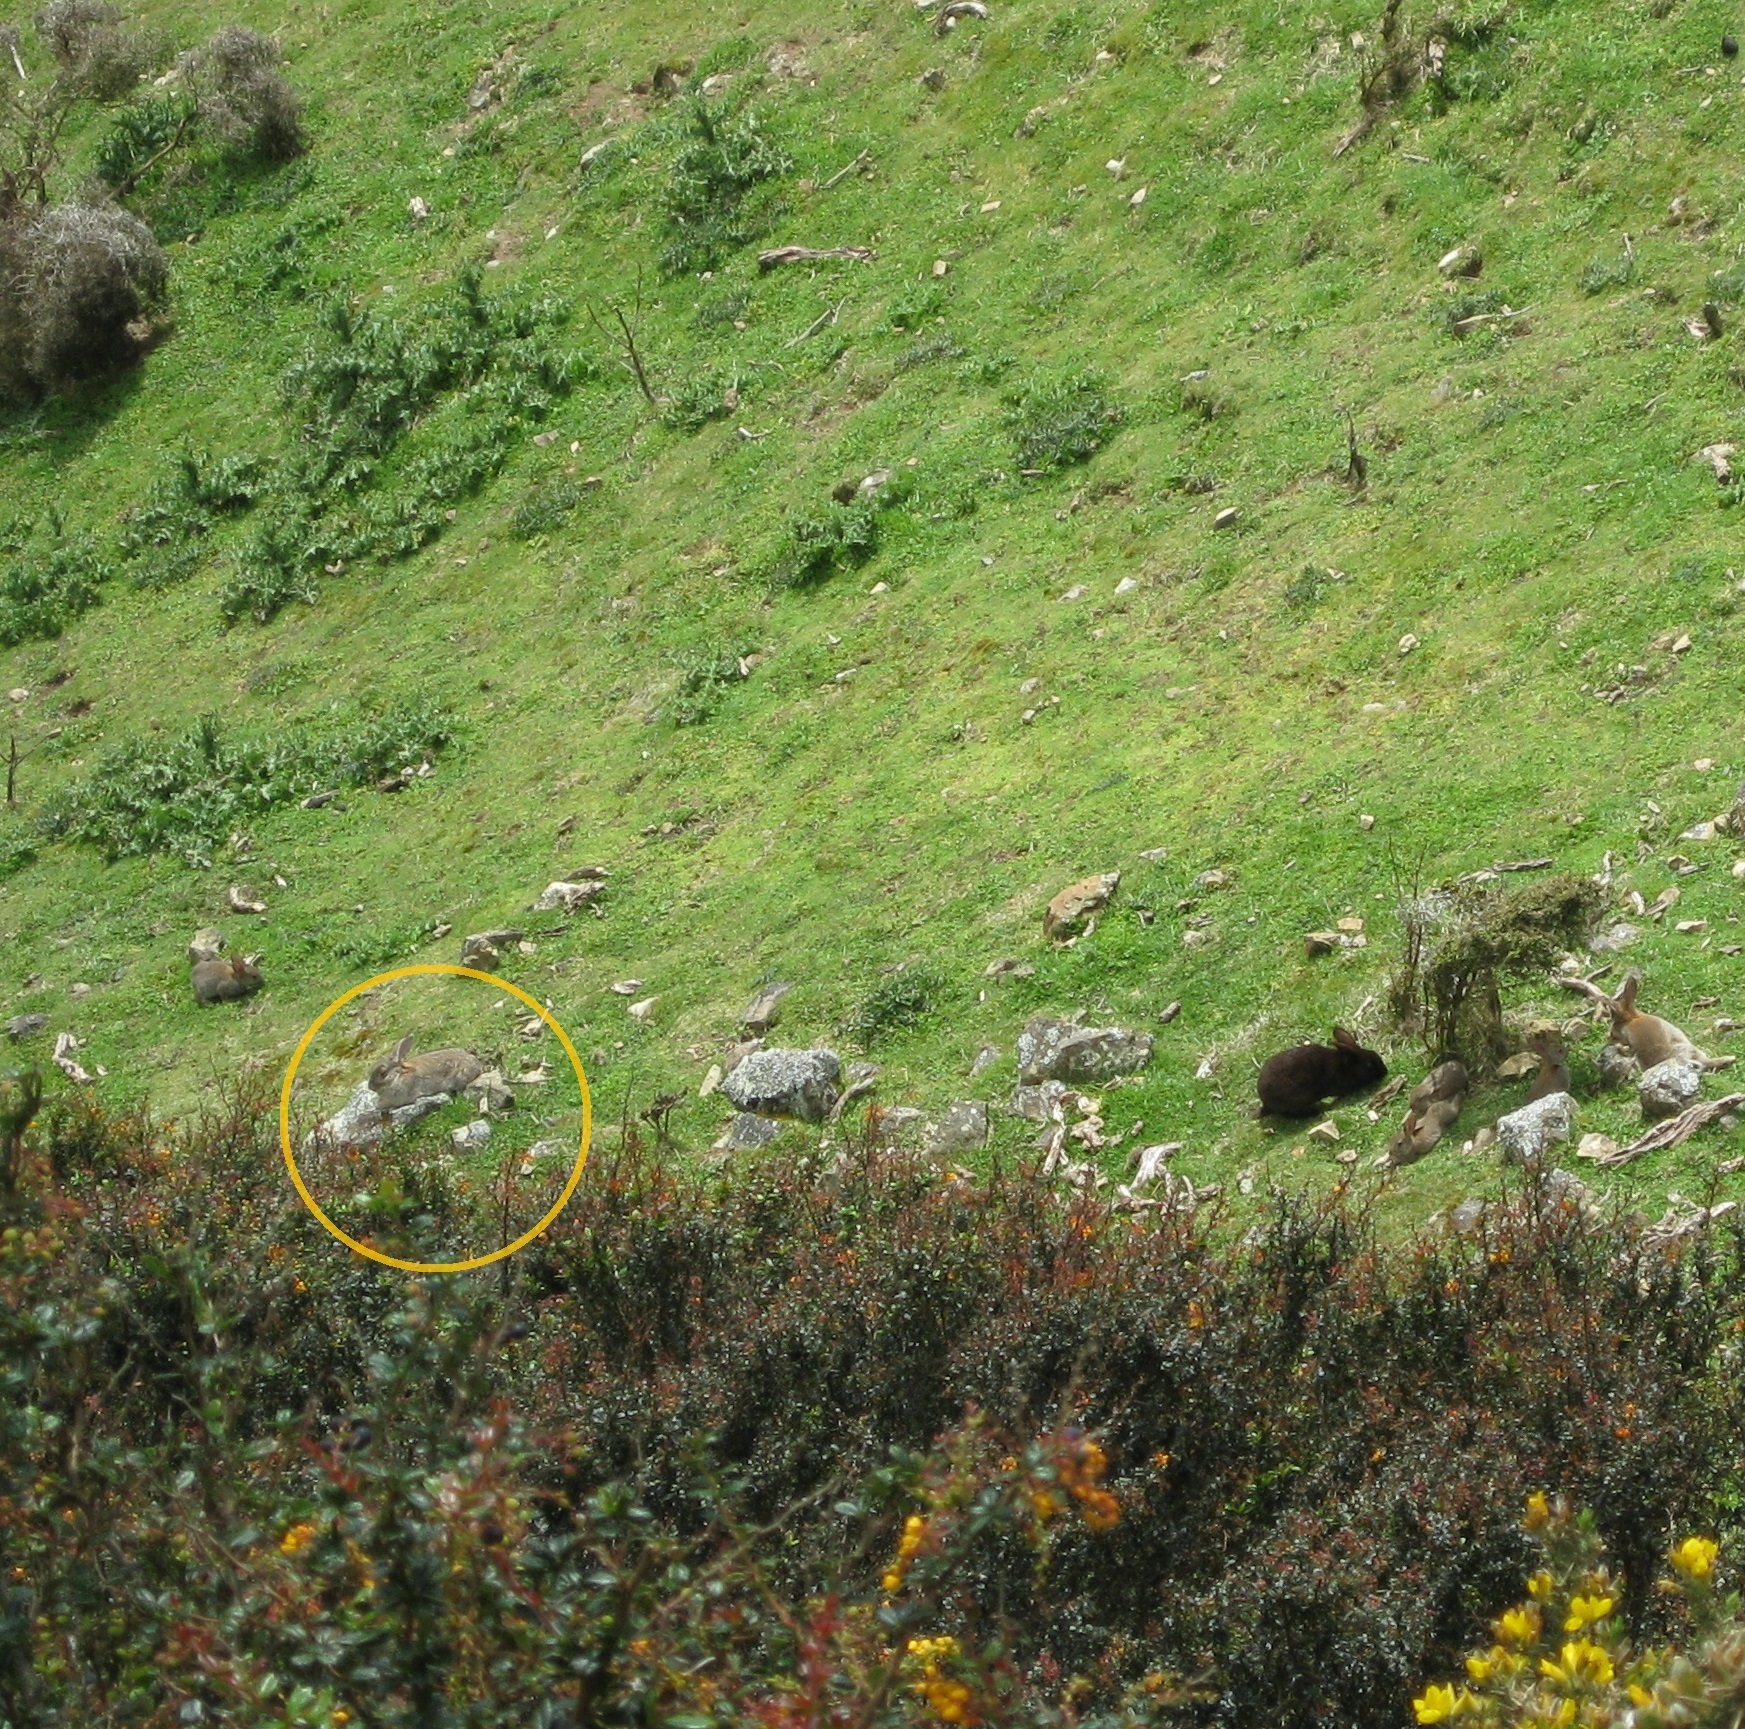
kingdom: Animalia
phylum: Chordata
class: Mammalia
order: Lagomorpha
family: Leporidae
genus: Oryctolagus
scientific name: Oryctolagus cuniculus
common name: European rabbit
